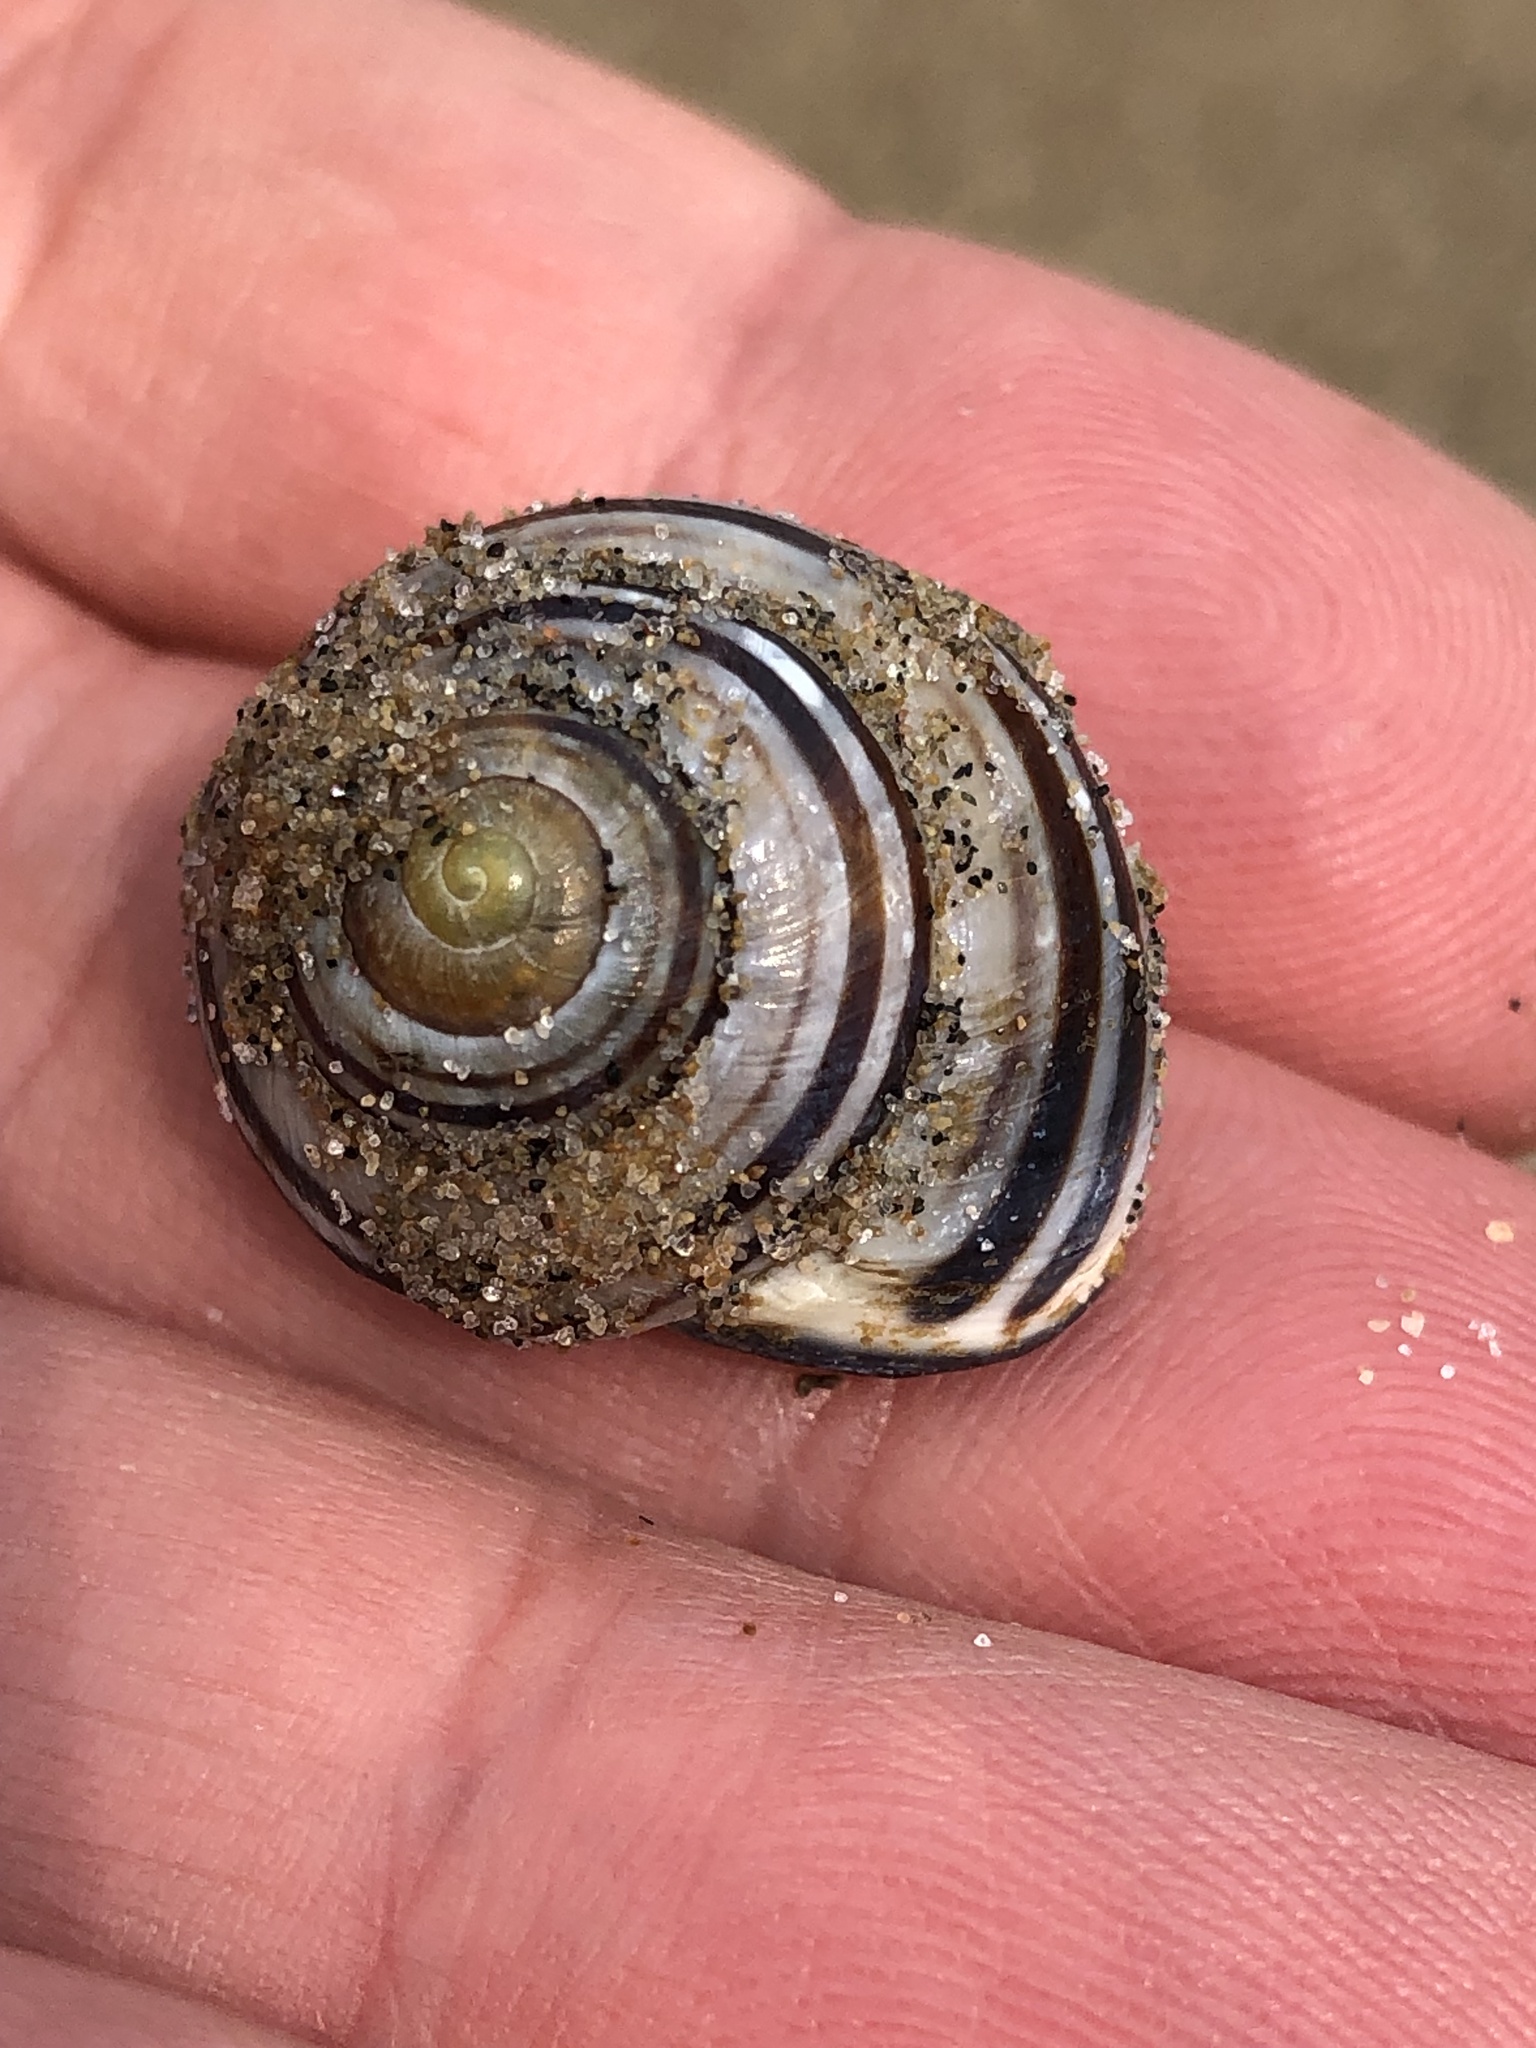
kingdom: Animalia
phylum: Mollusca
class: Gastropoda
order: Stylommatophora
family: Helicidae
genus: Cepaea
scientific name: Cepaea nemoralis
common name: Grovesnail
